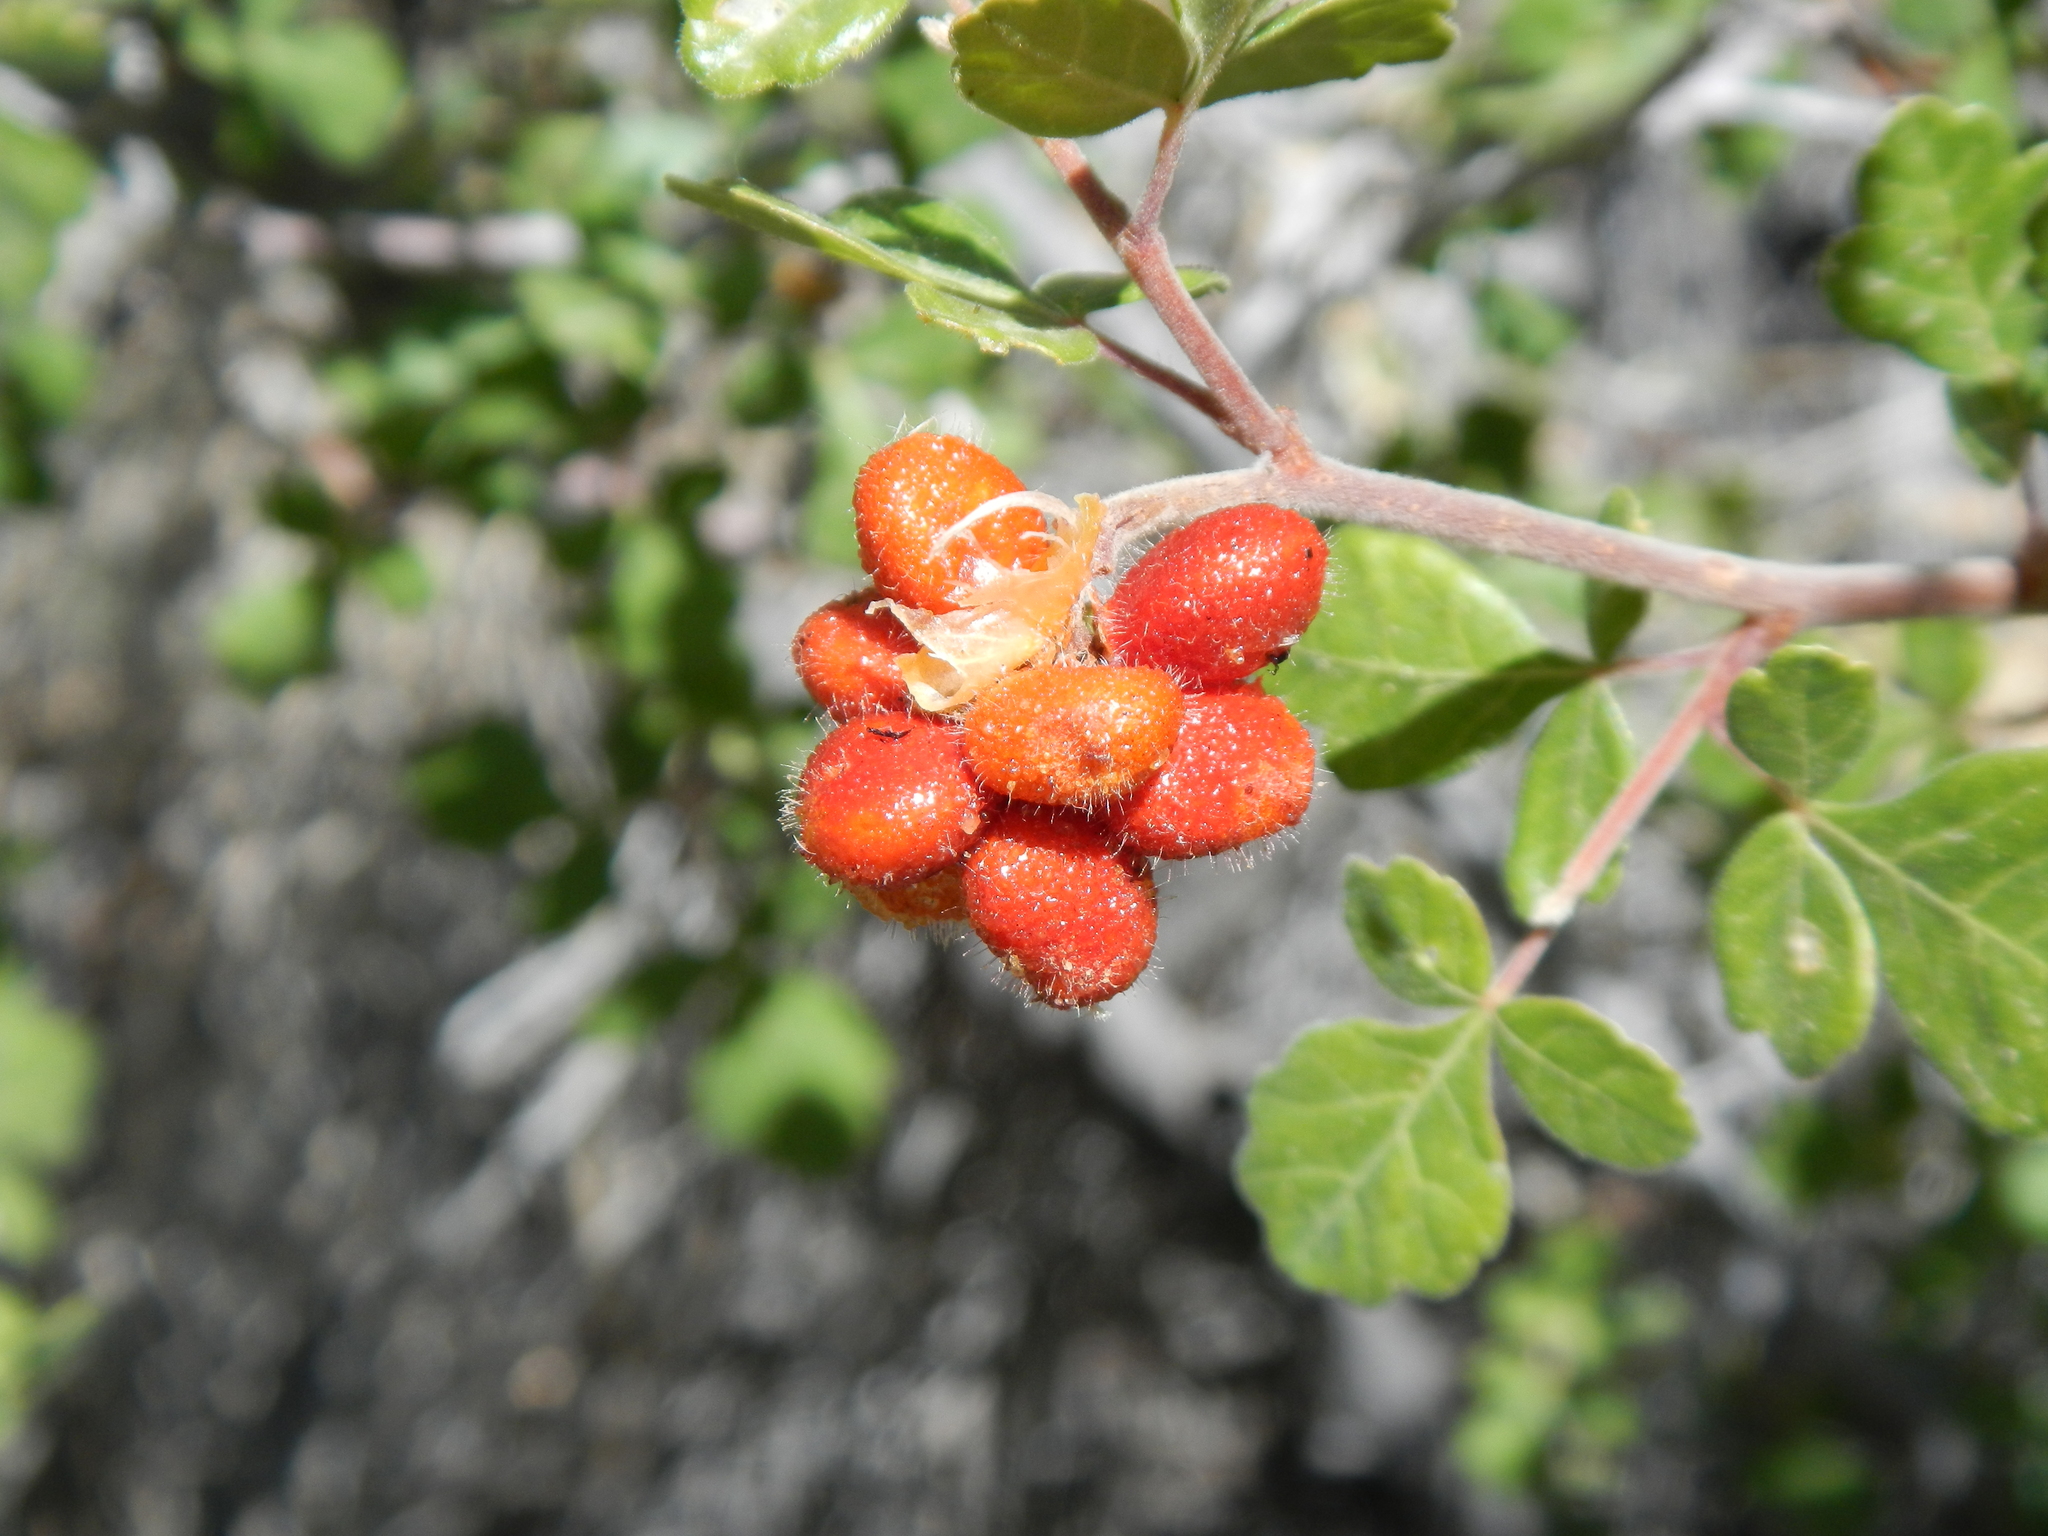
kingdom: Plantae
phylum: Tracheophyta
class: Magnoliopsida
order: Sapindales
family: Anacardiaceae
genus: Rhus
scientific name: Rhus trilobata
